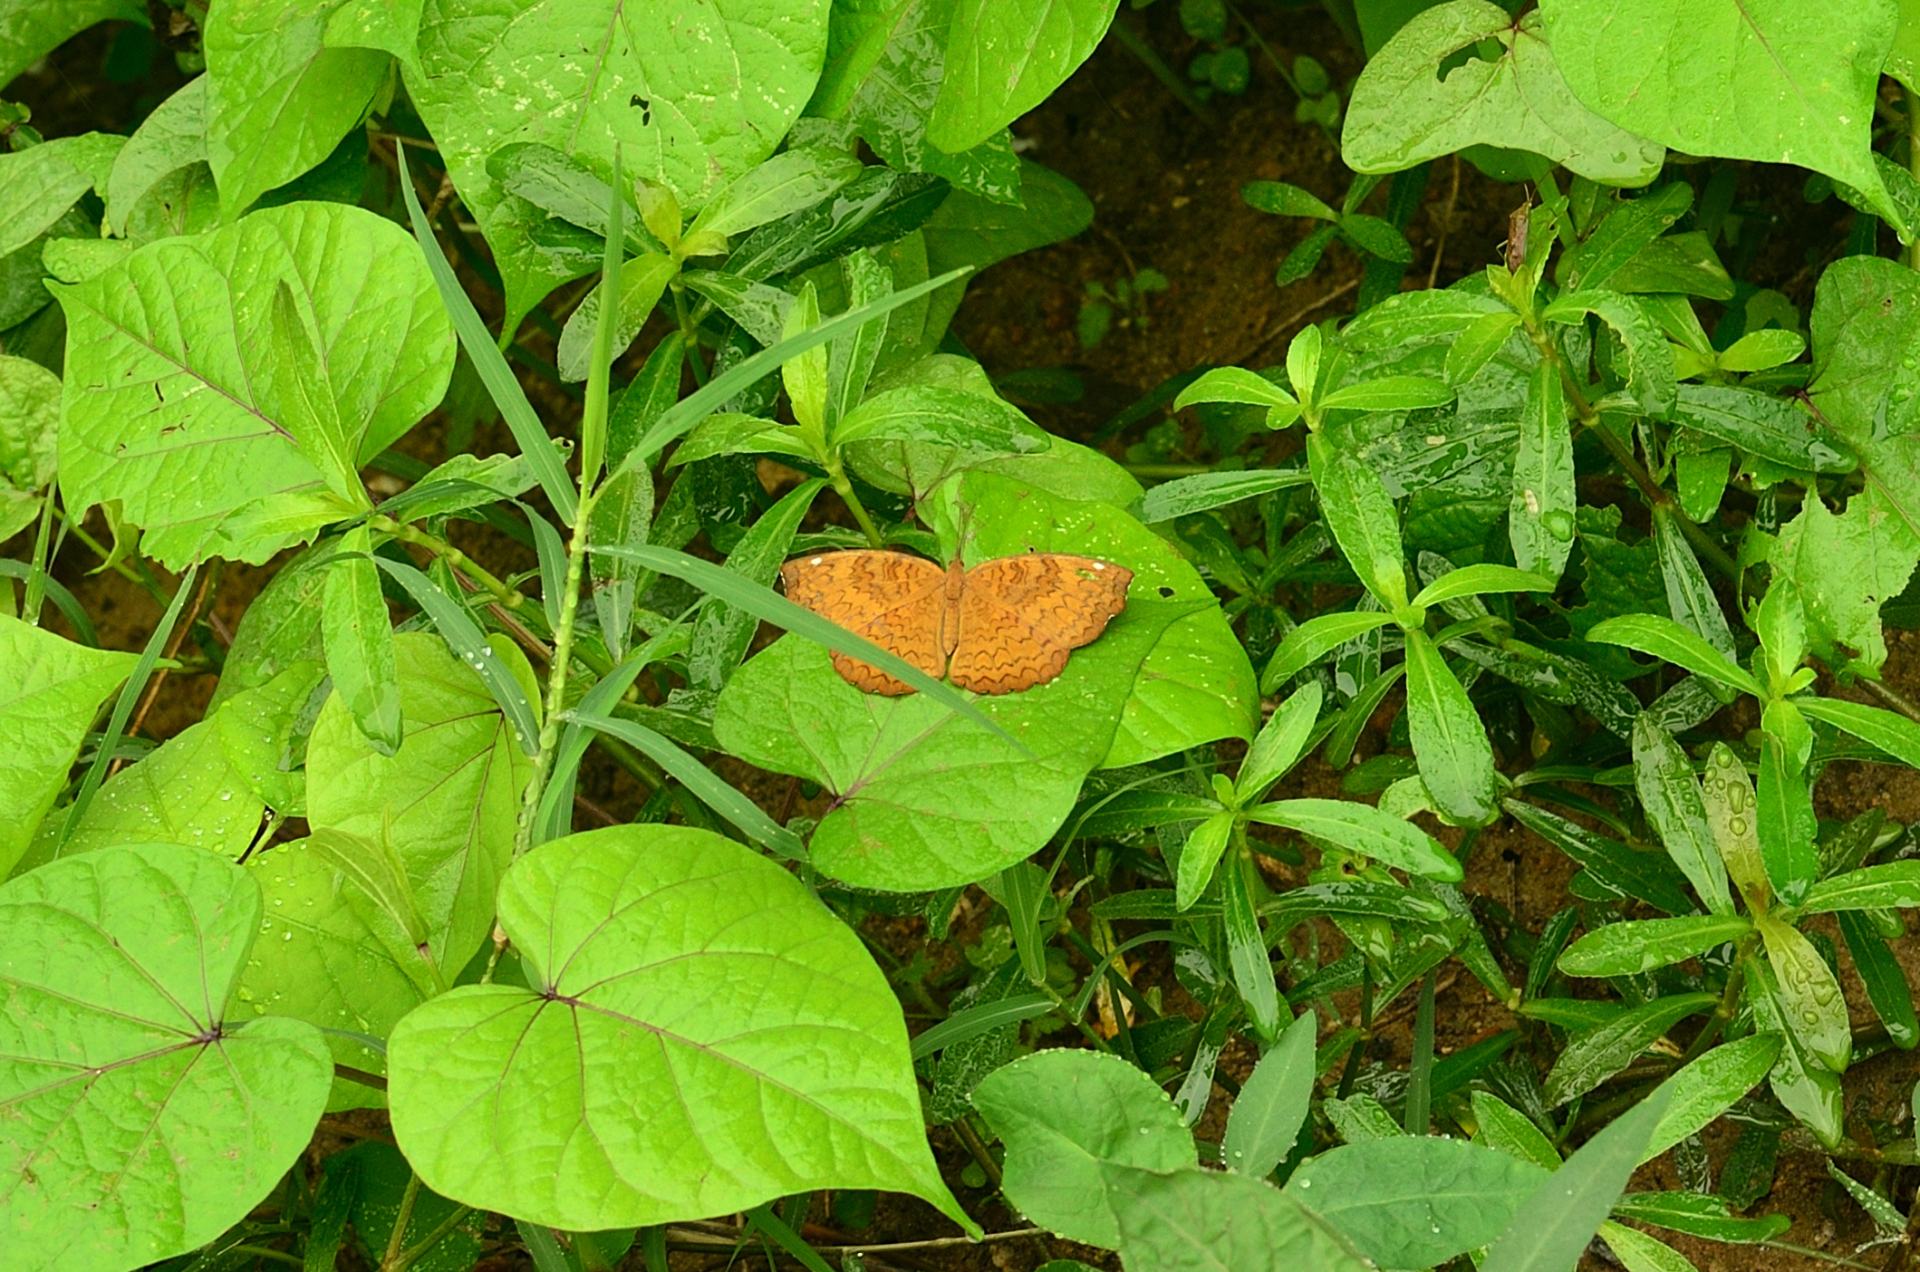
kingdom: Animalia
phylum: Arthropoda
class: Insecta
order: Lepidoptera
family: Nymphalidae
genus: Ariadne
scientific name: Ariadne merione
